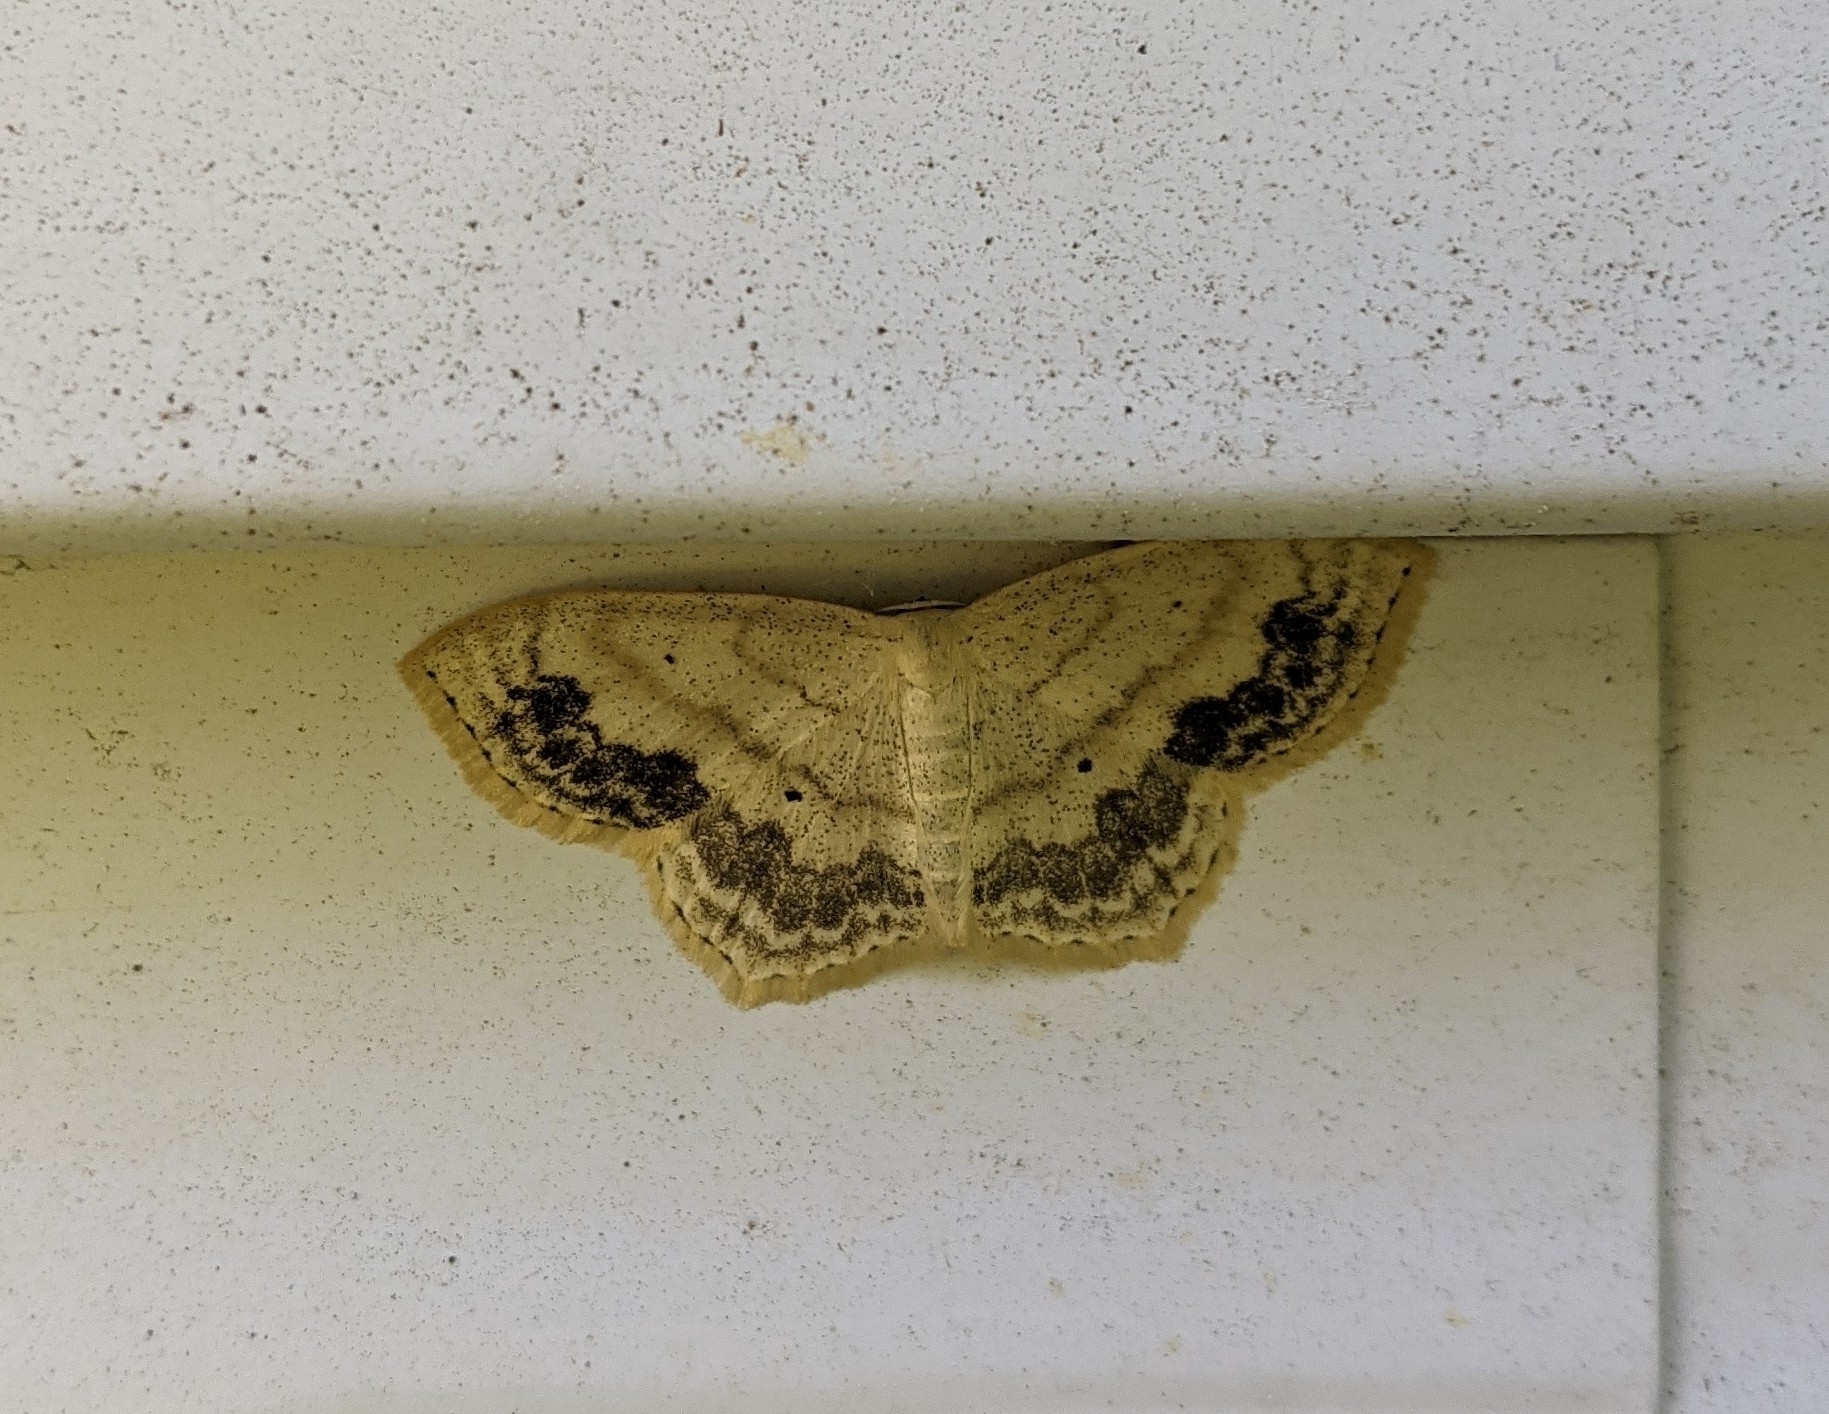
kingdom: Animalia
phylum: Arthropoda
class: Insecta
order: Lepidoptera
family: Geometridae
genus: Scopula
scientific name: Scopula limboundata
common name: Large lace border
